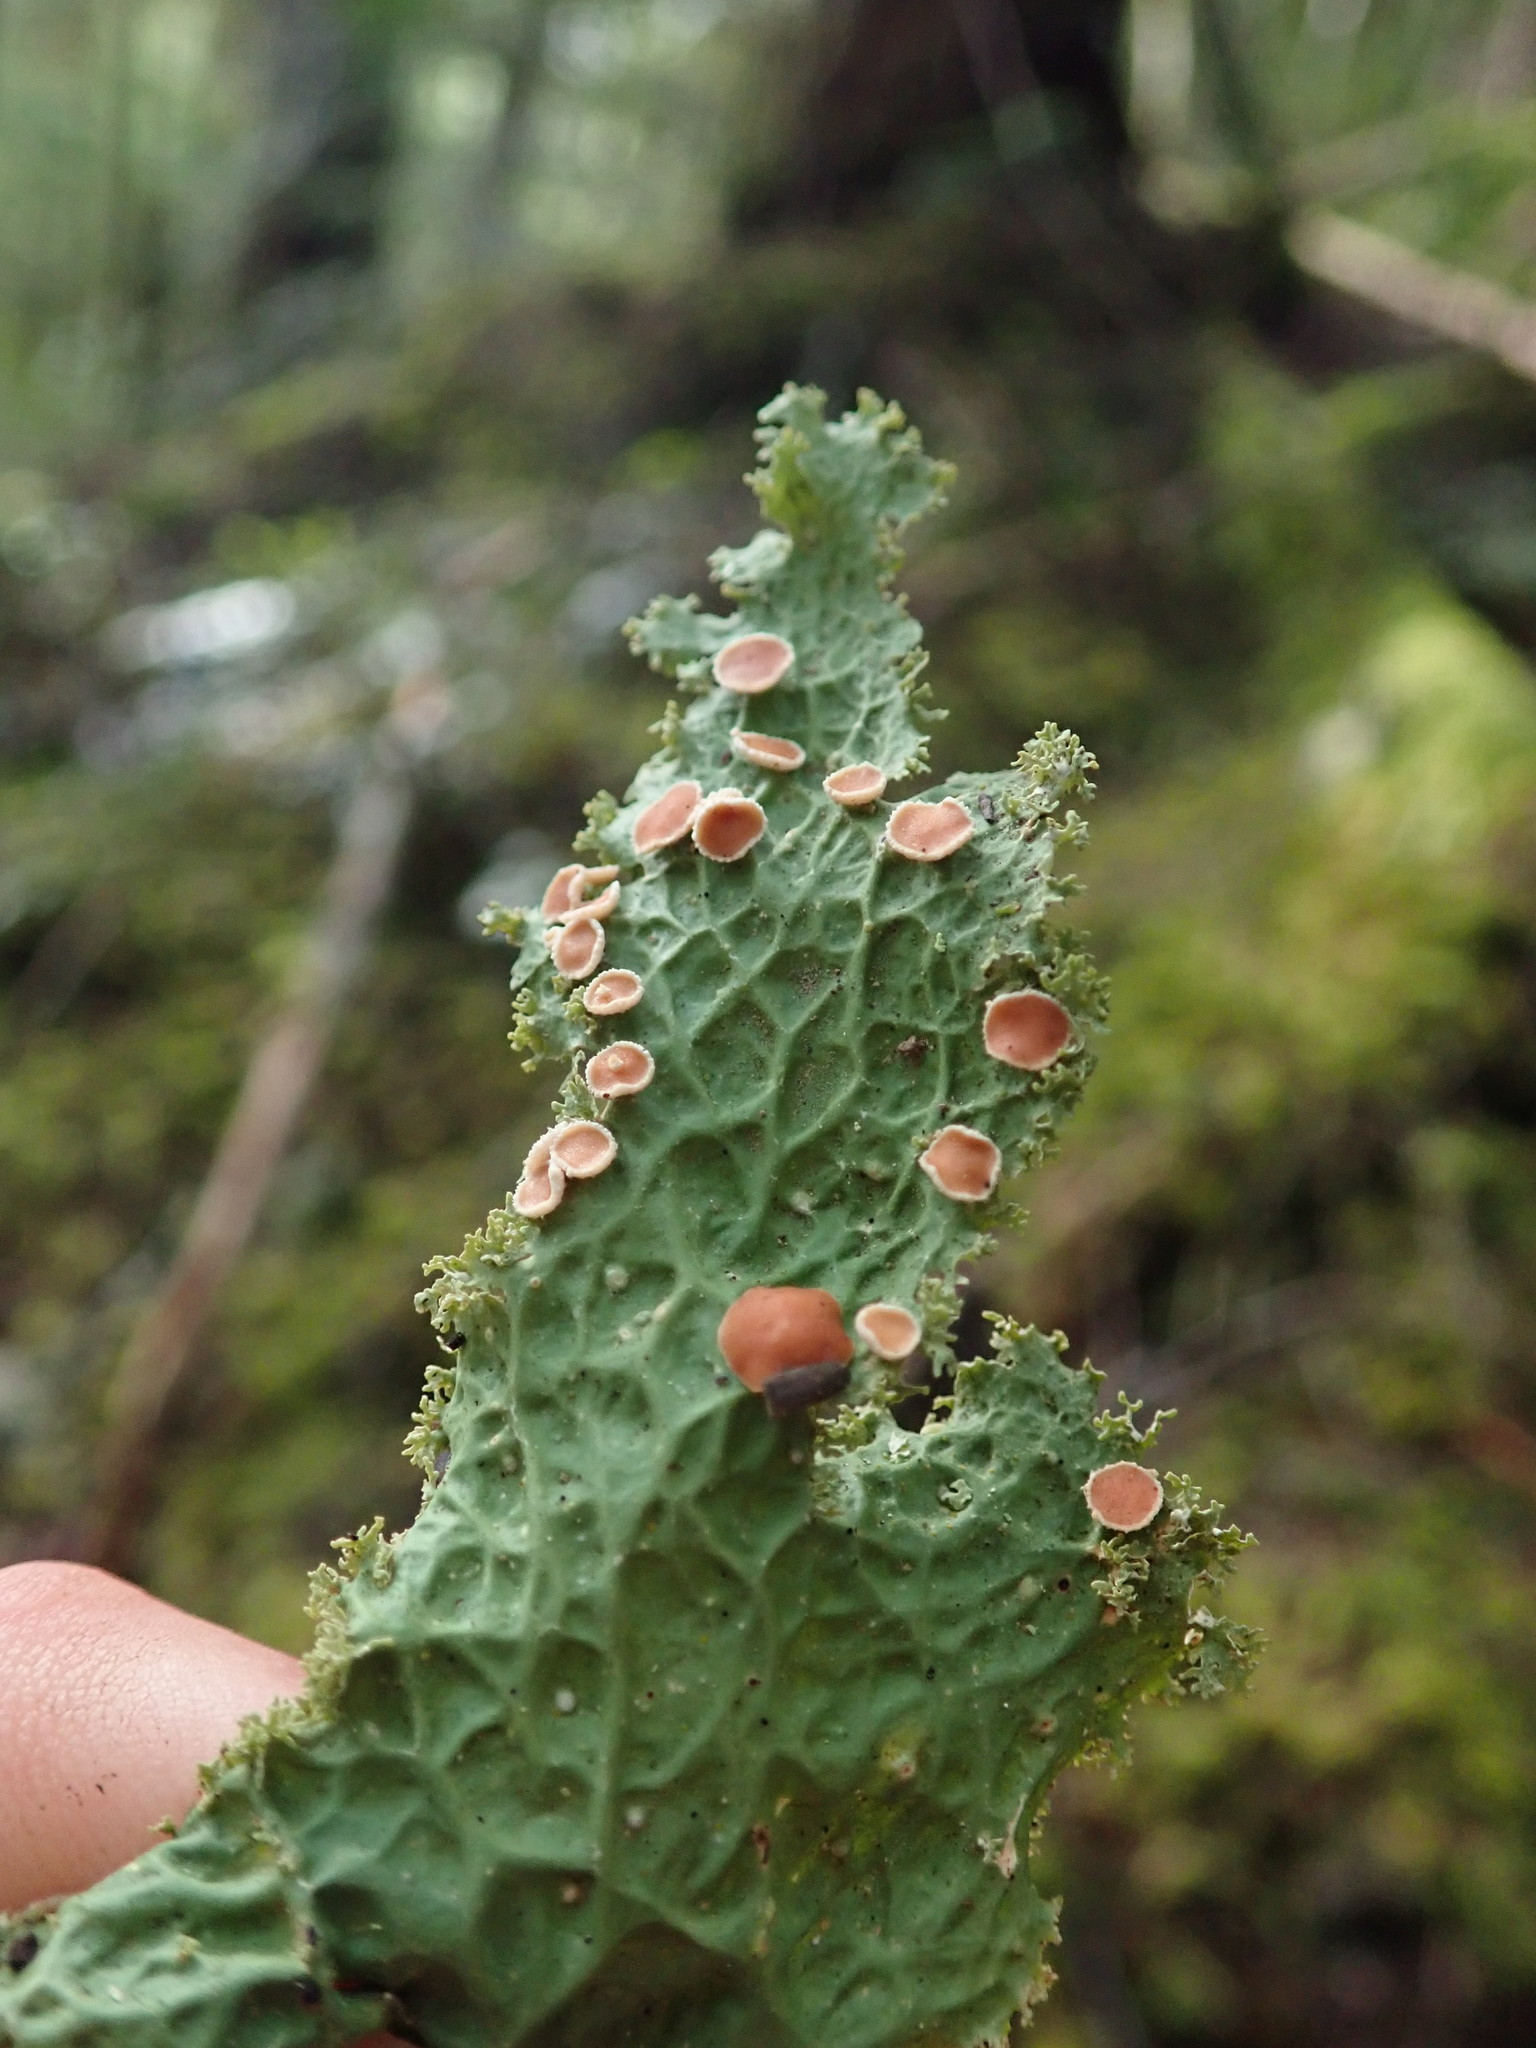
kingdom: Fungi
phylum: Ascomycota
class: Lecanoromycetes
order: Peltigerales
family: Lobariaceae
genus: Lobaria
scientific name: Lobaria oregana
